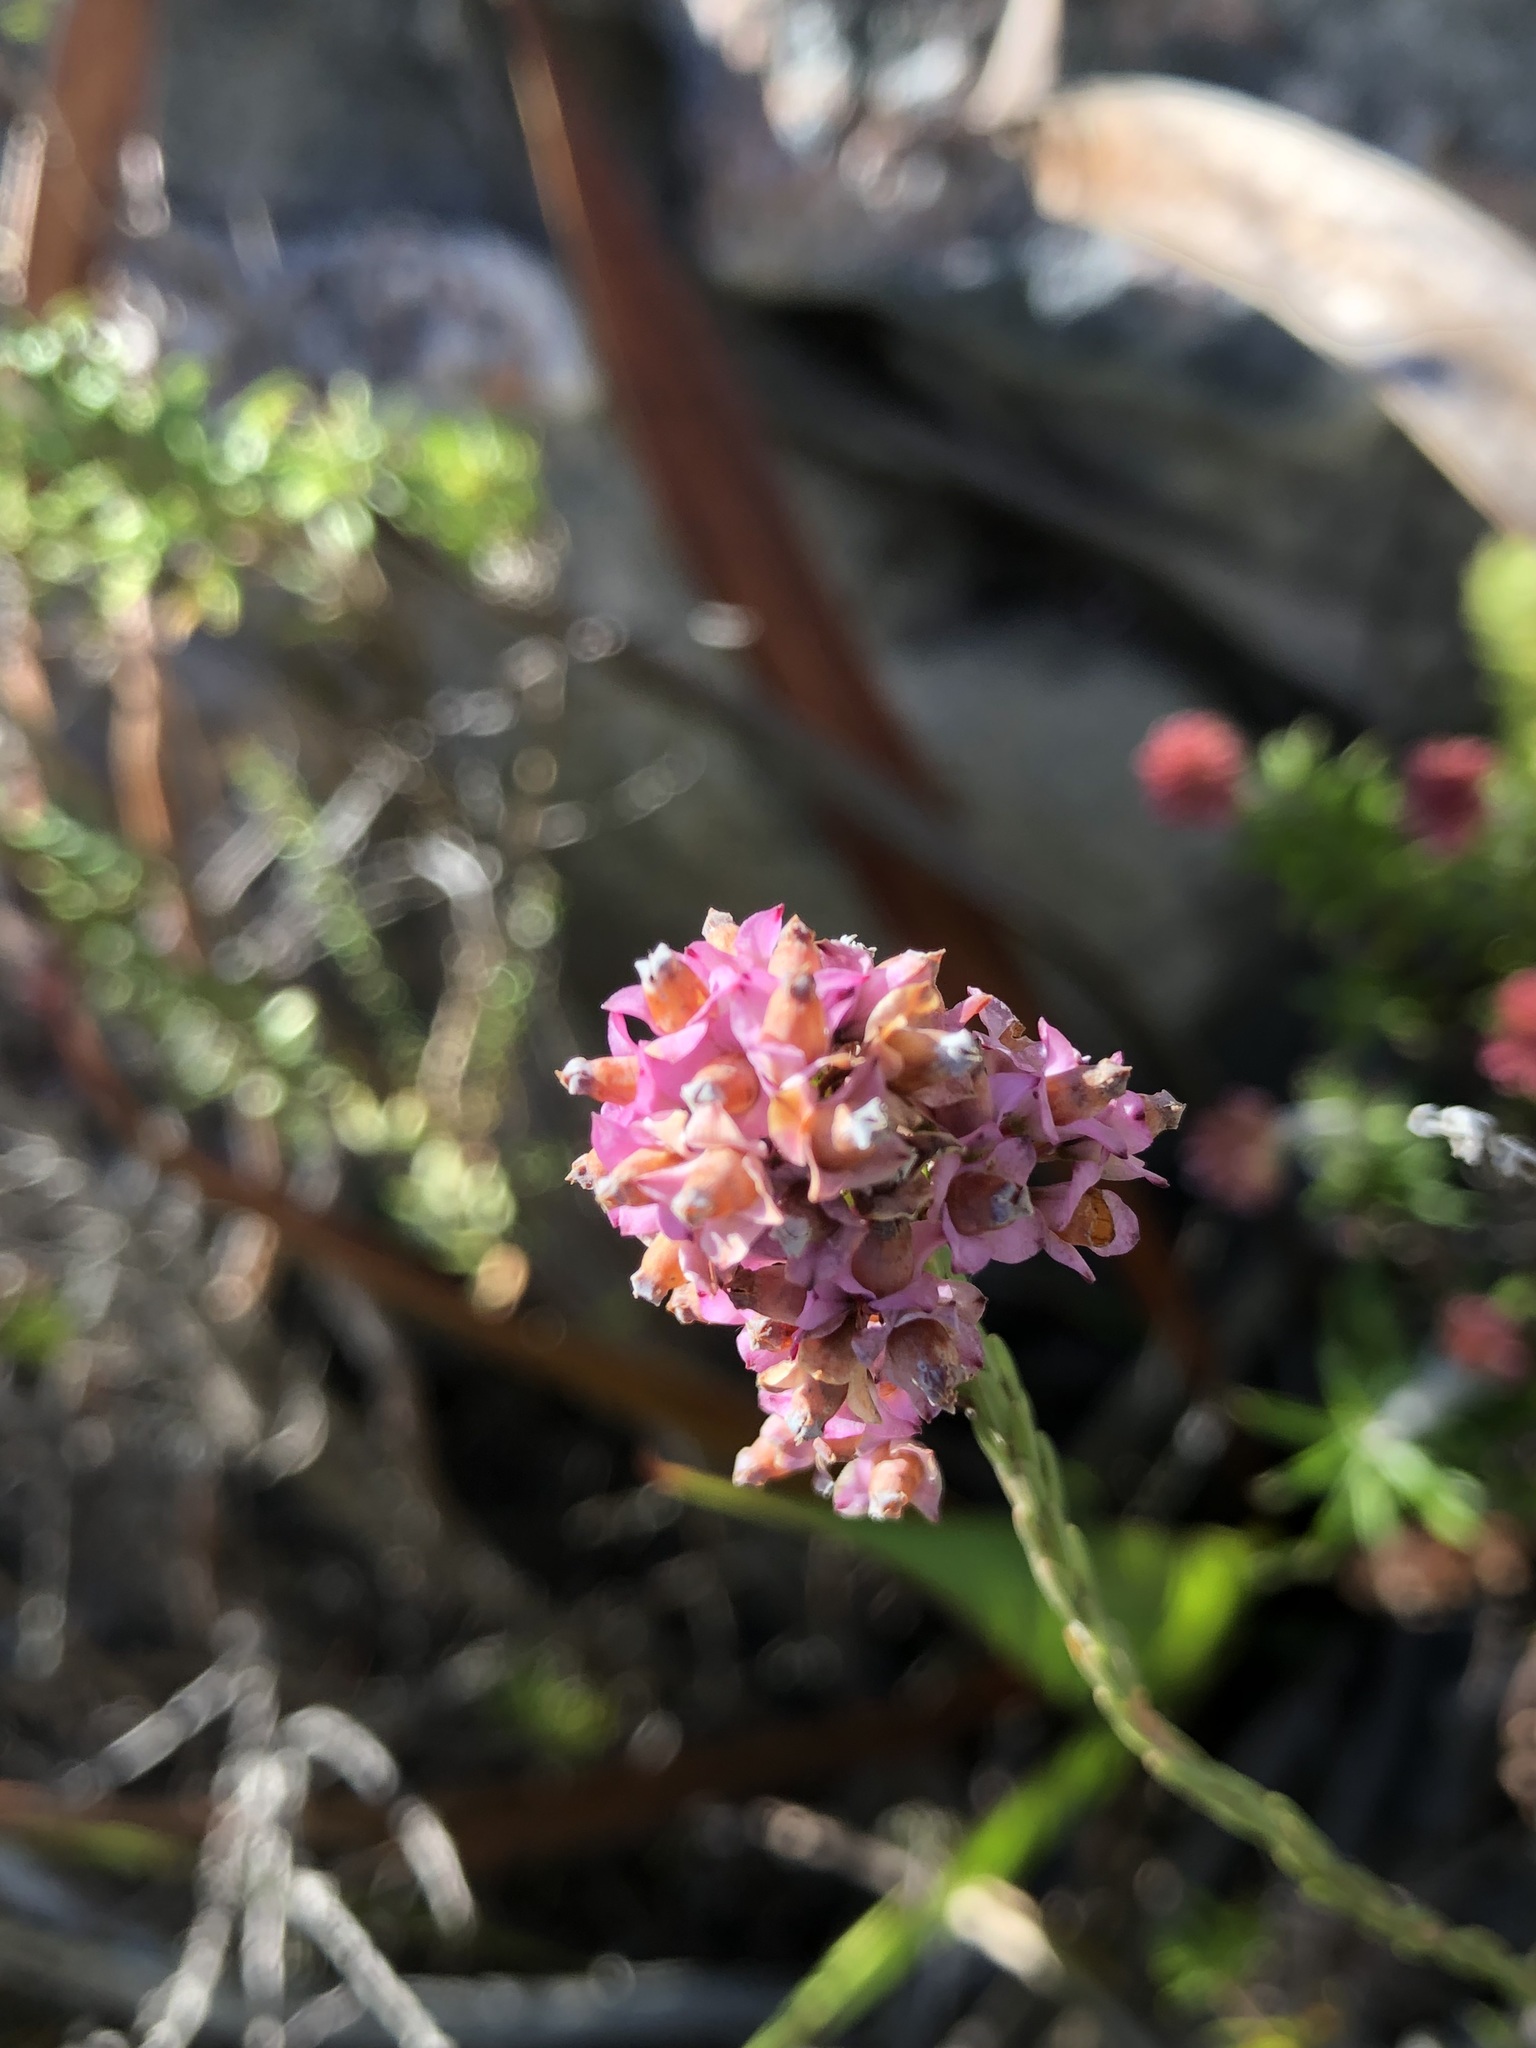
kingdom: Plantae
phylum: Tracheophyta
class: Magnoliopsida
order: Ericales
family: Ericaceae
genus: Erica
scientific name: Erica corifolia
